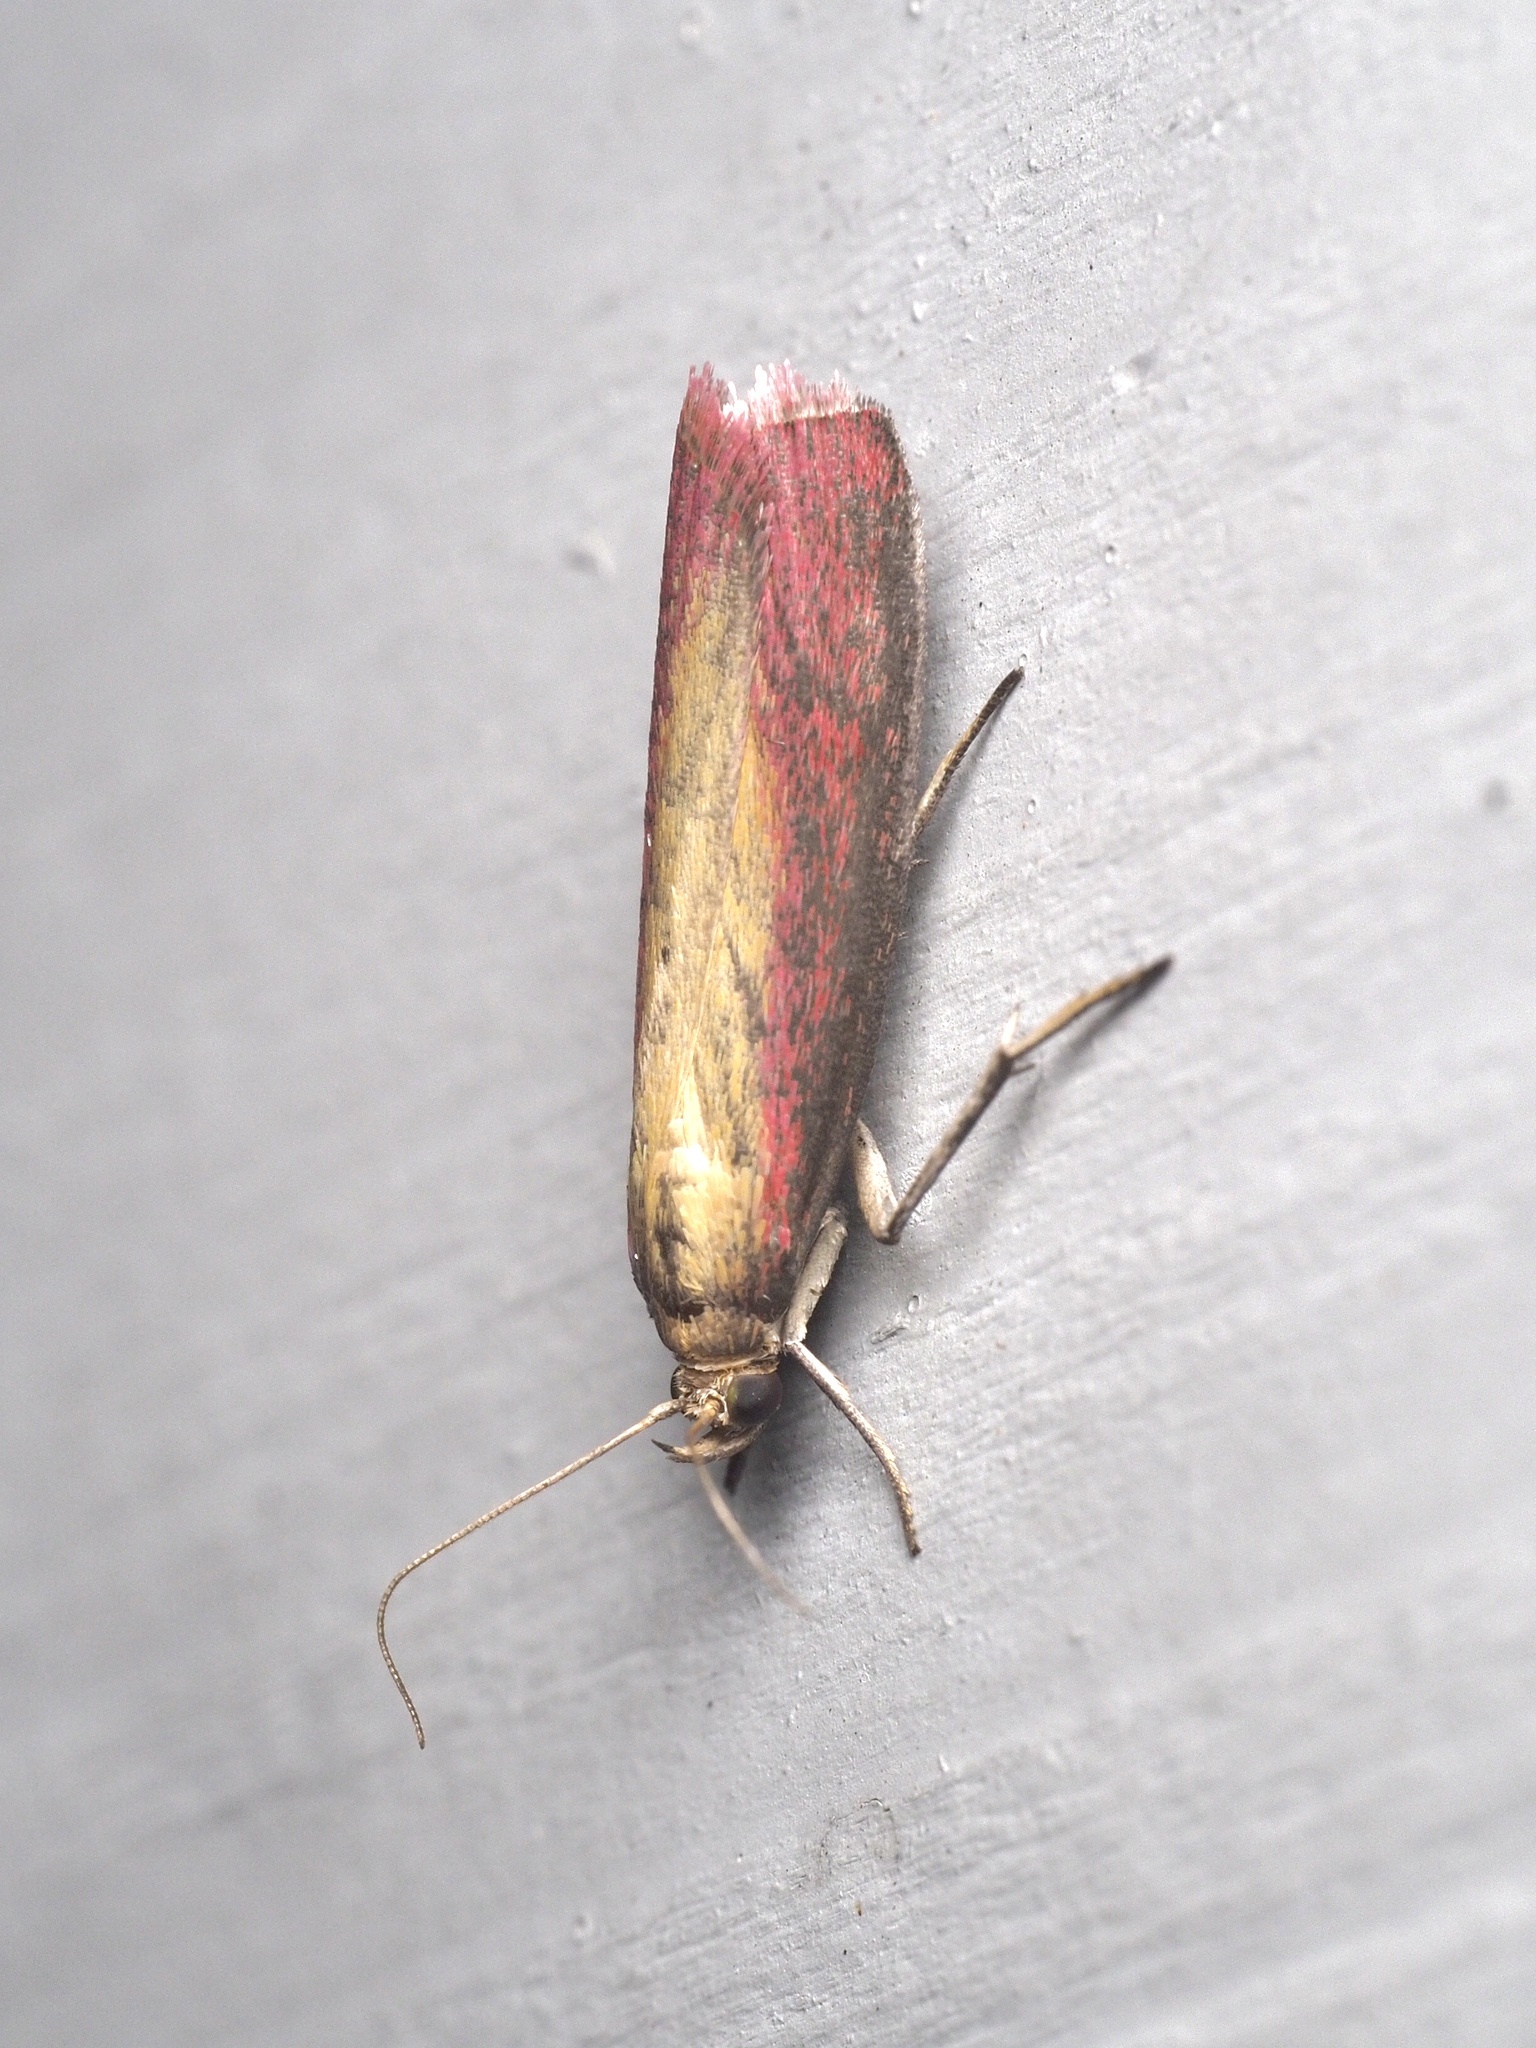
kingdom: Animalia
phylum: Arthropoda
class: Insecta
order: Lepidoptera
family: Pyralidae
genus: Oncocera
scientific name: Oncocera semirubella
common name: Rosy-striped knot-horn
